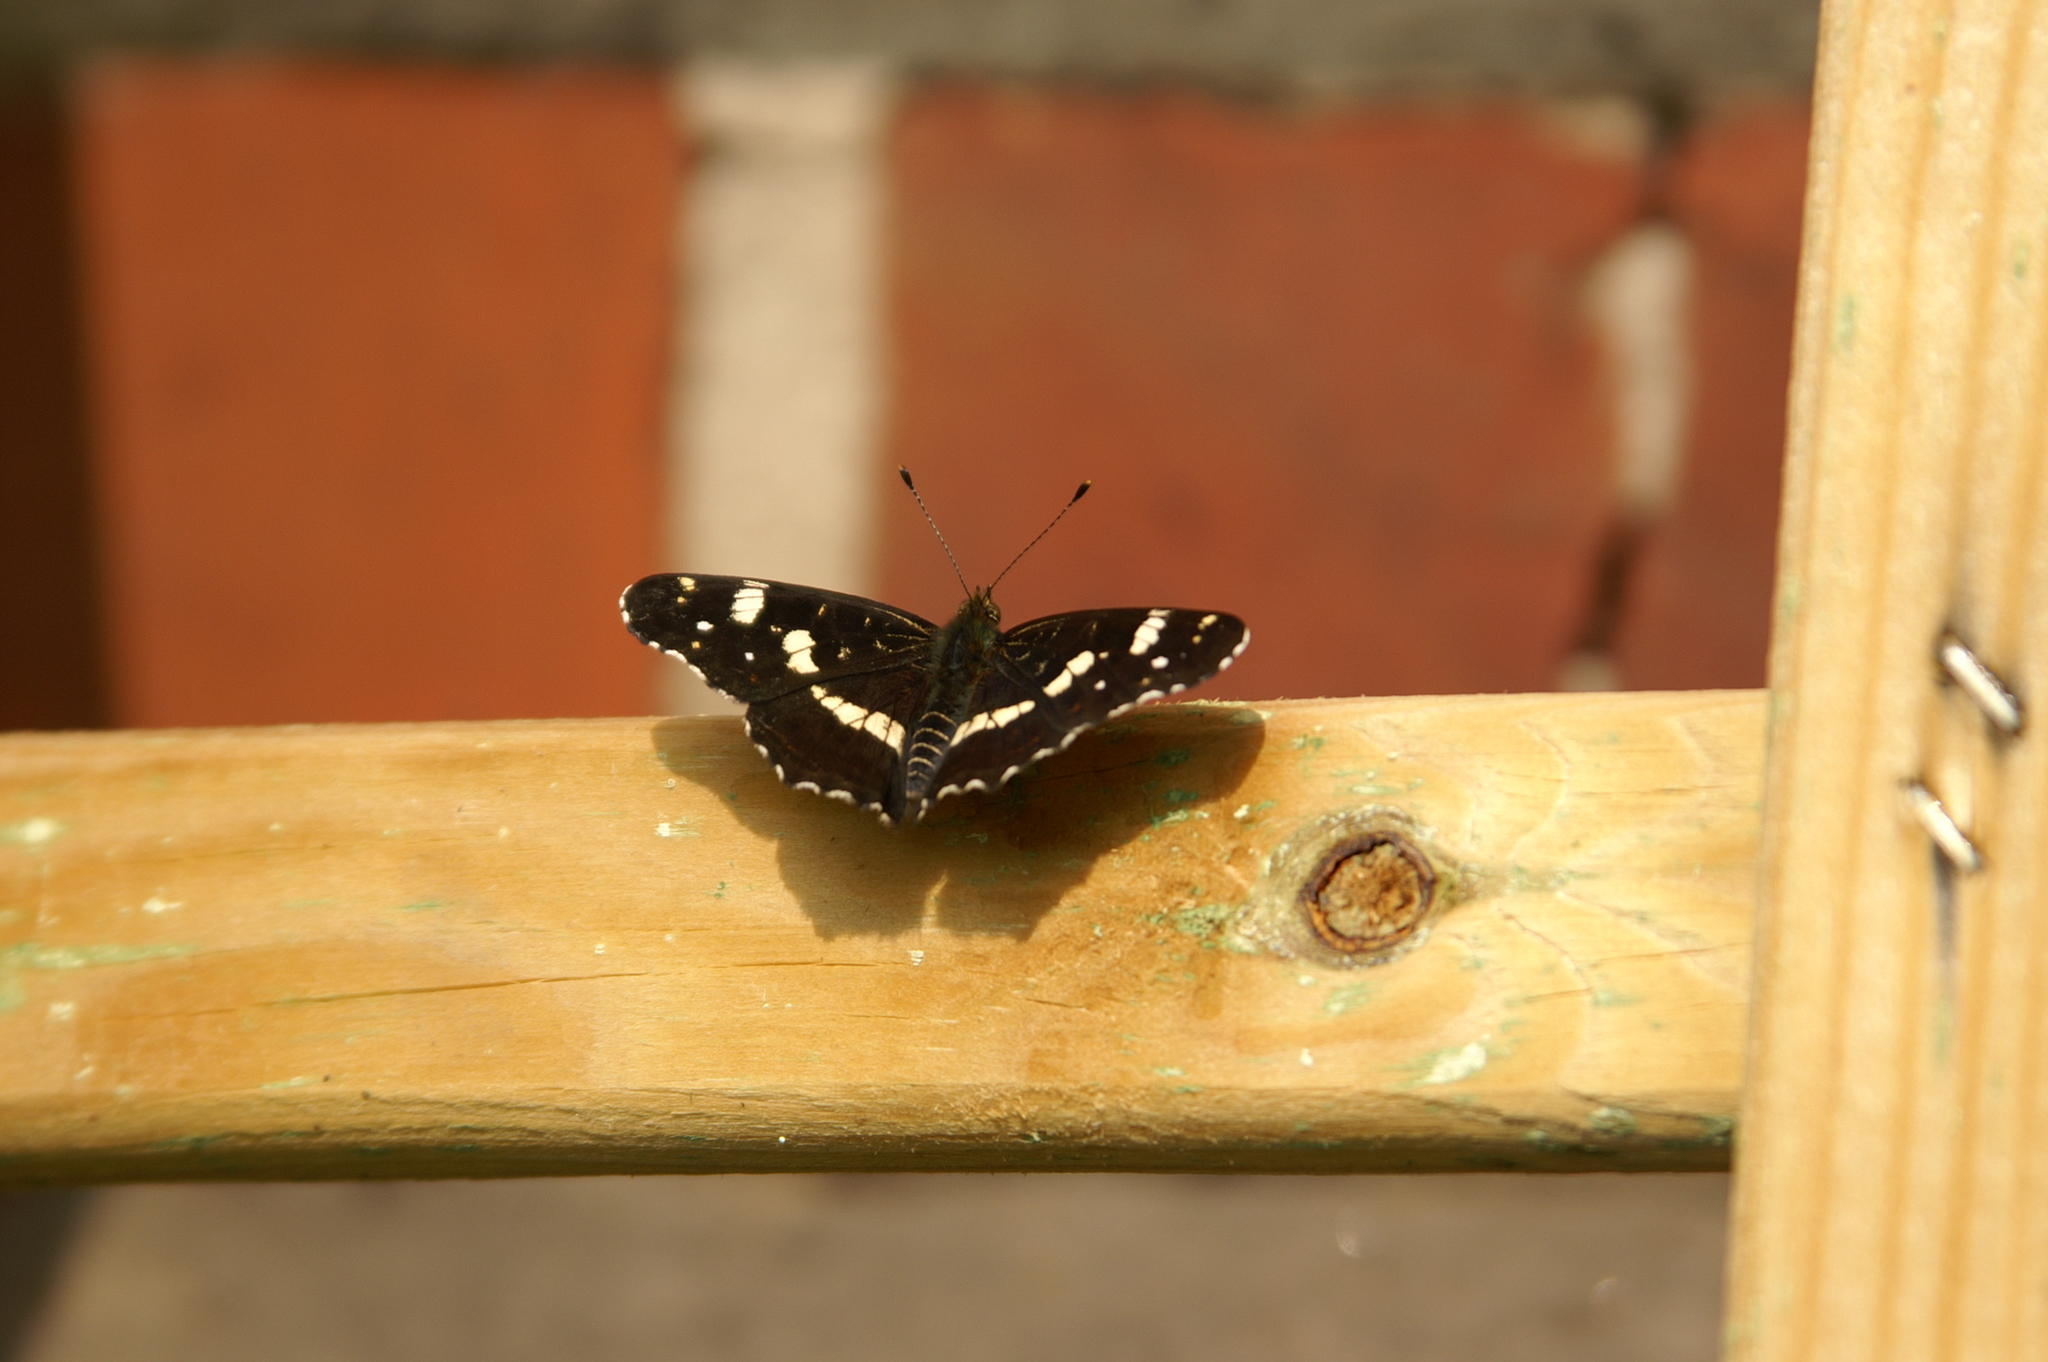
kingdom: Animalia
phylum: Arthropoda
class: Insecta
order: Lepidoptera
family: Nymphalidae
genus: Araschnia
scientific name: Araschnia levana
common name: Map butterfly
